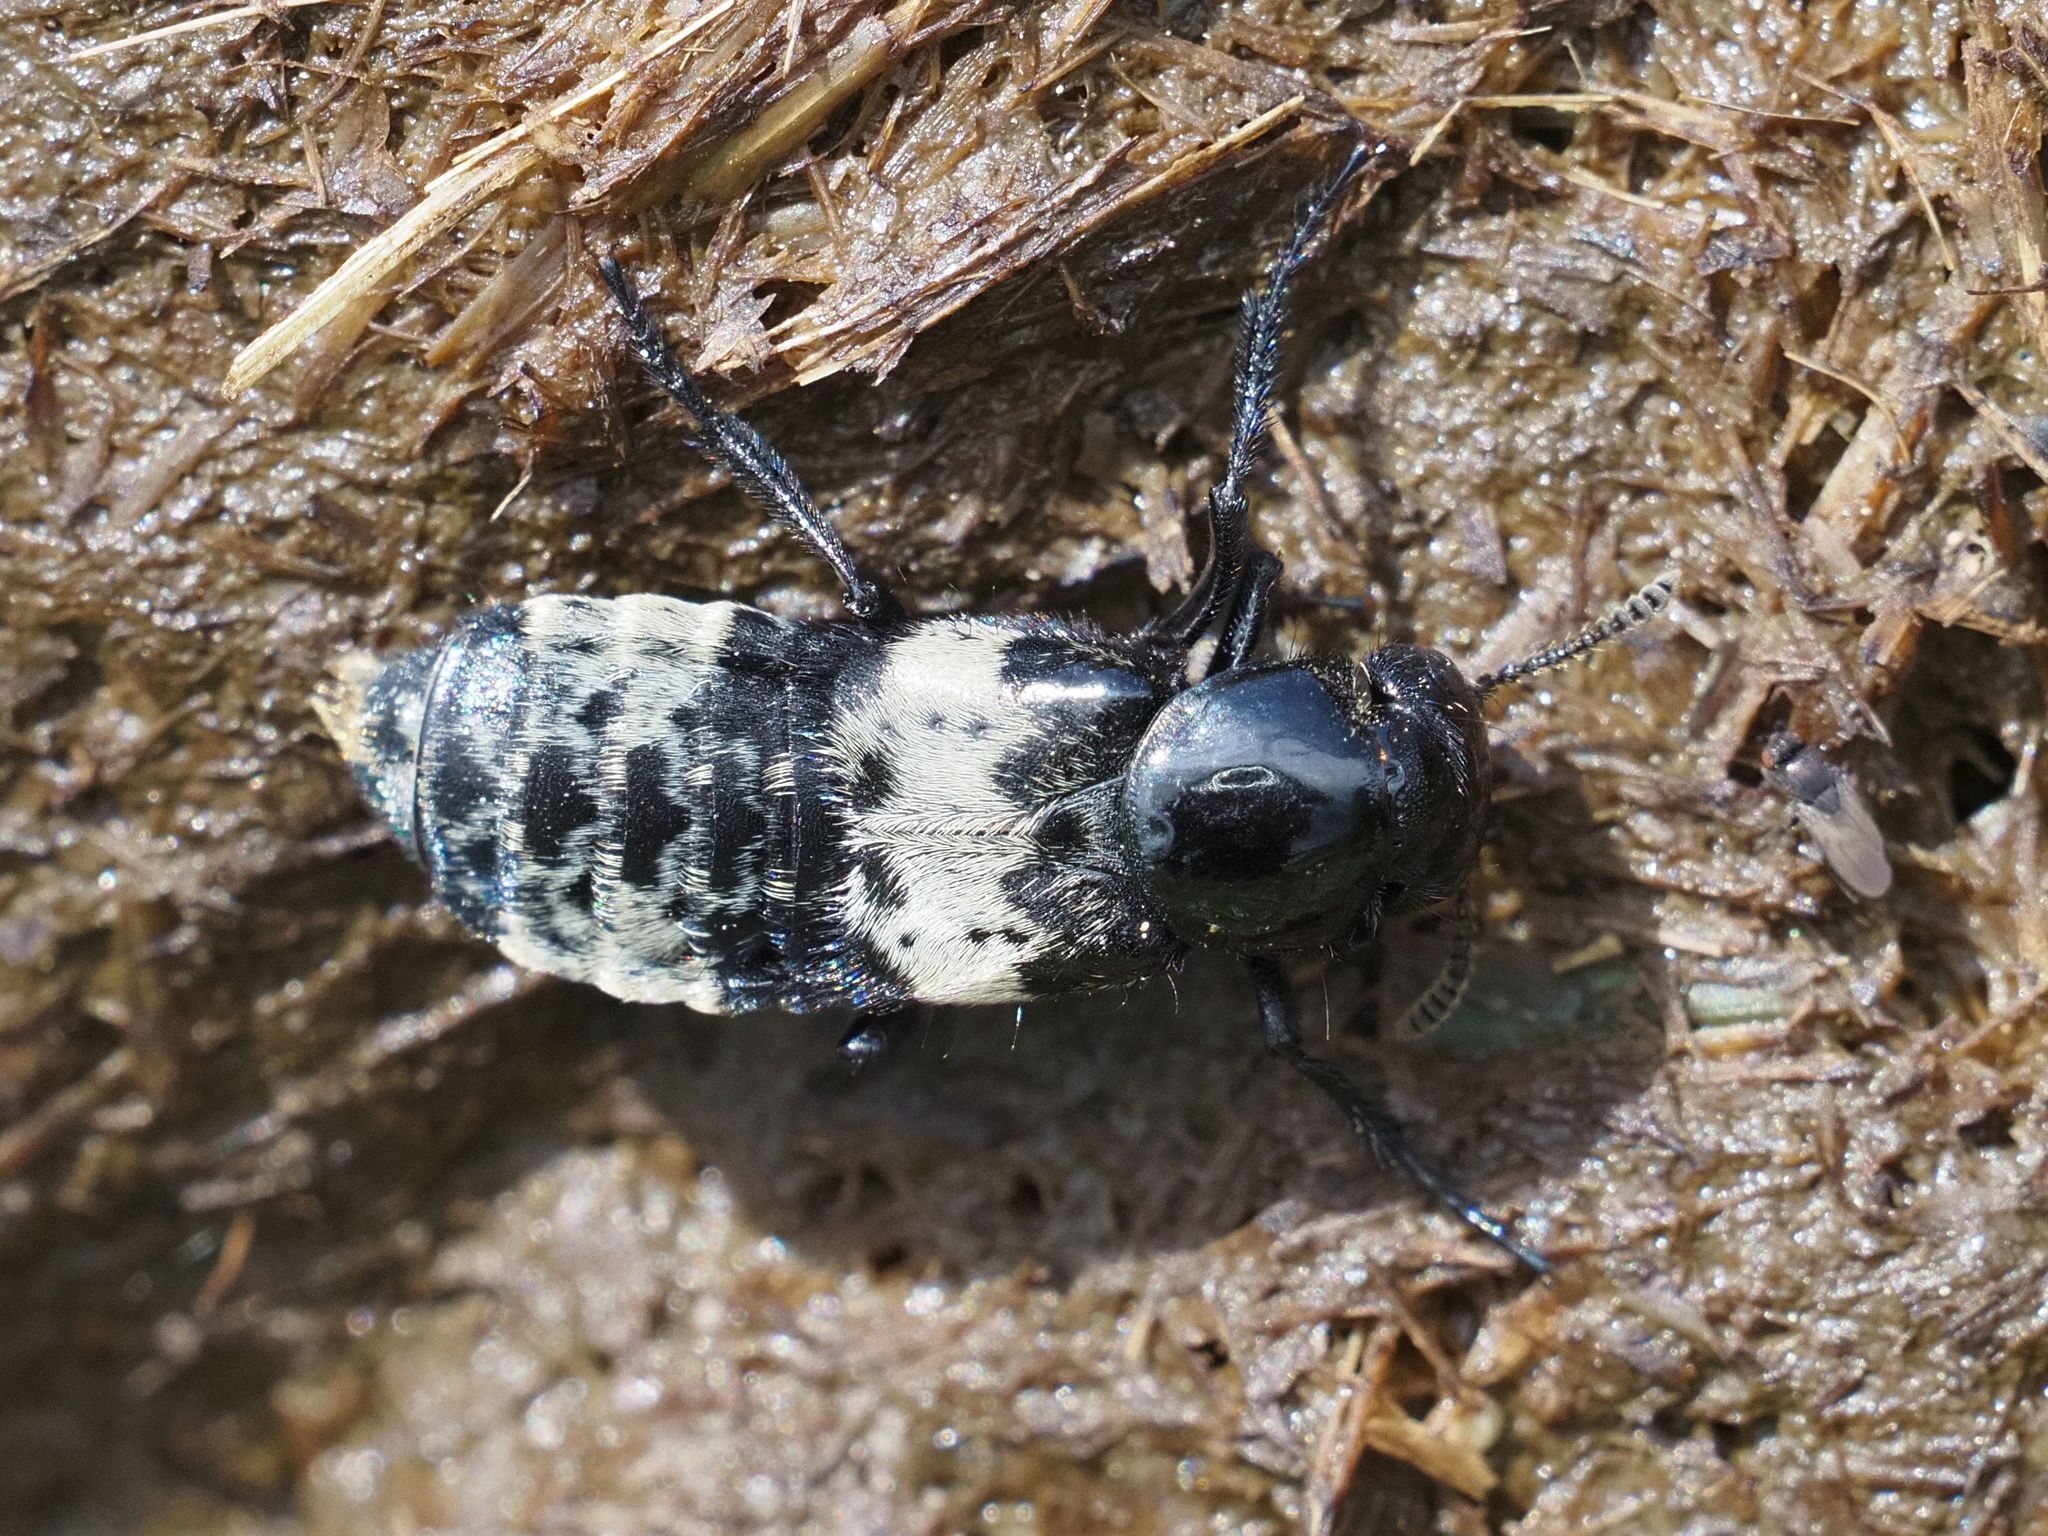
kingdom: Animalia
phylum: Arthropoda
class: Insecta
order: Coleoptera
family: Staphylinidae
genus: Creophilus
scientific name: Creophilus maxillosus
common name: Hairy rove beetle
